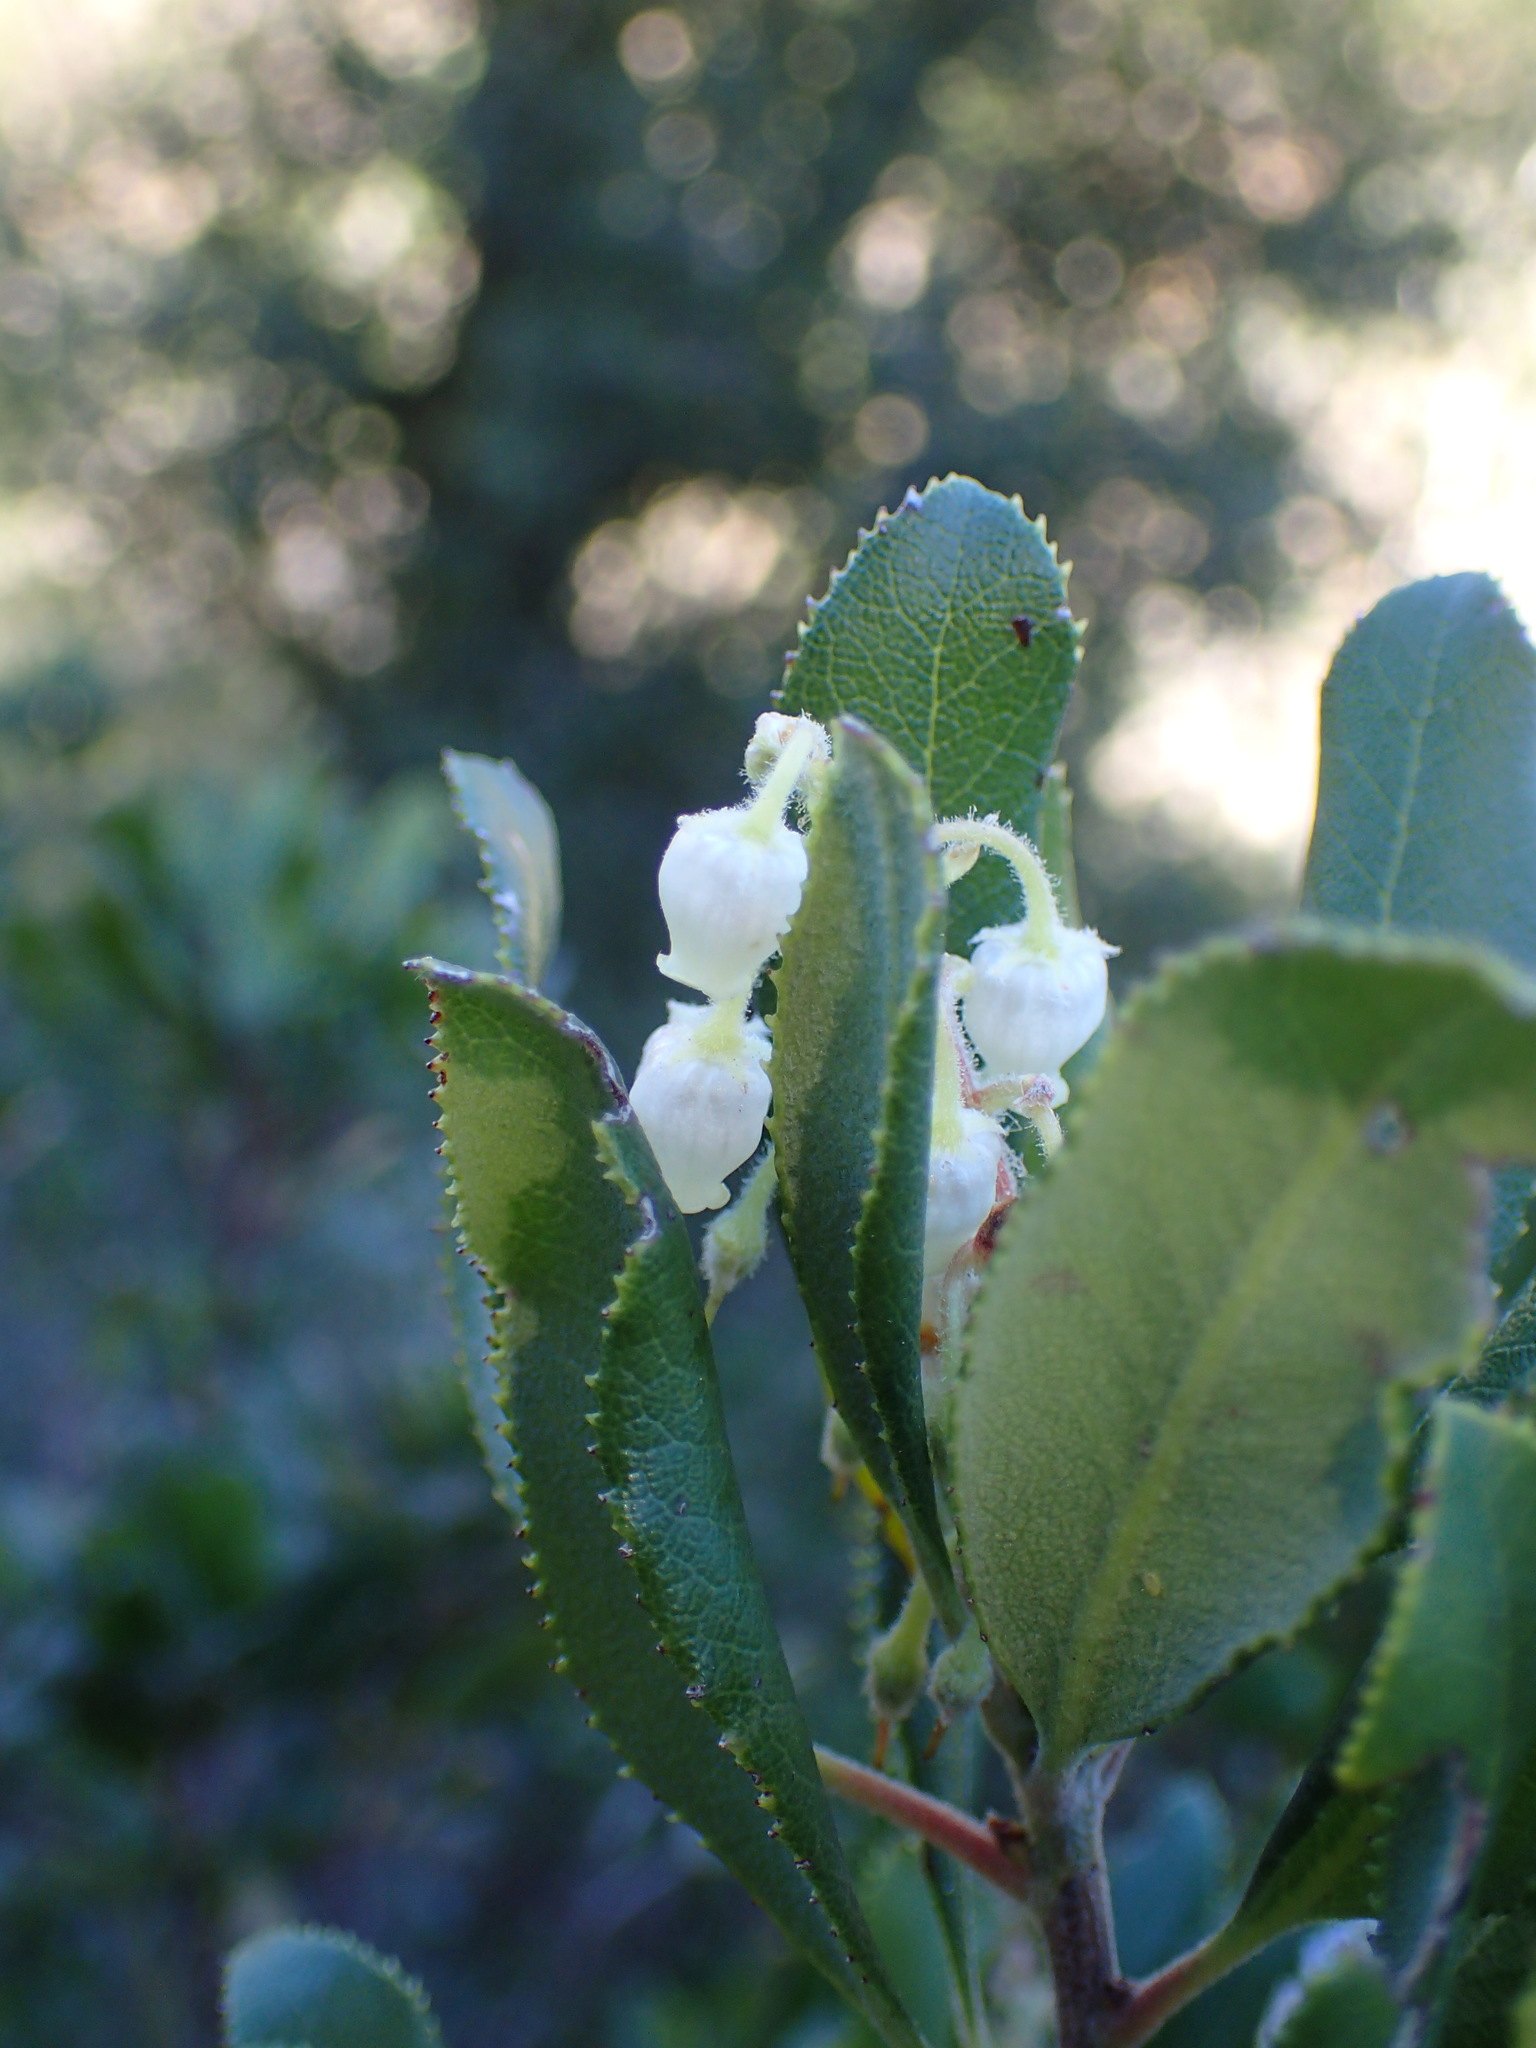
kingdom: Plantae
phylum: Tracheophyta
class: Magnoliopsida
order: Ericales
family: Ericaceae
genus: Comarostaphylis
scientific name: Comarostaphylis diversifolia
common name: Summer-holly
